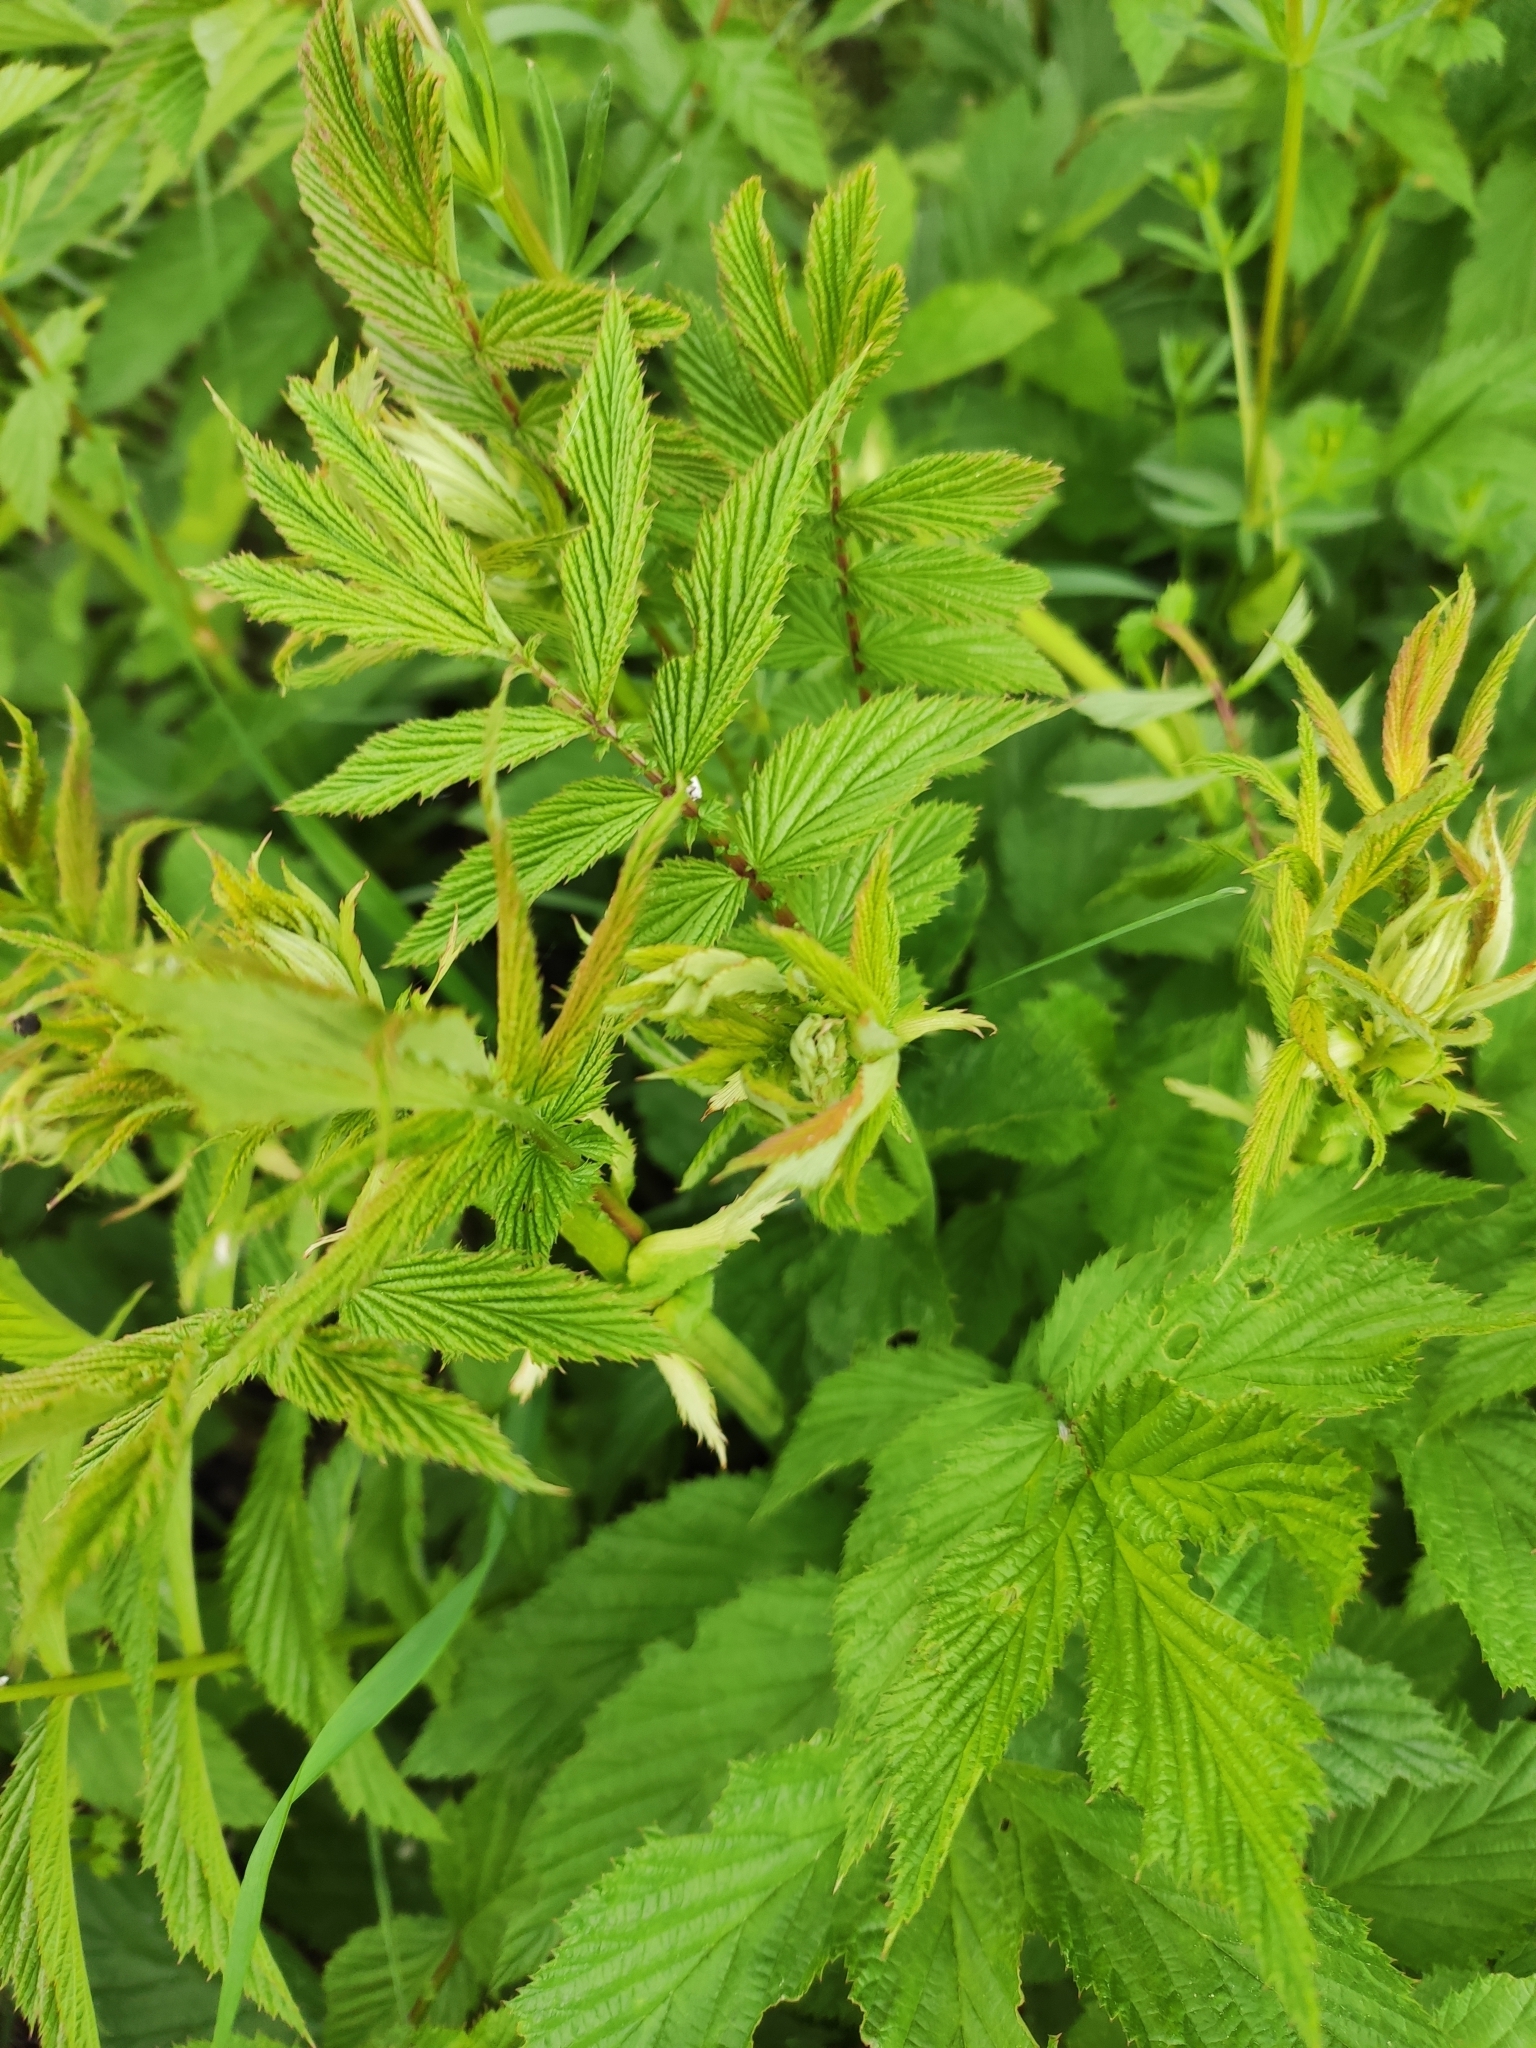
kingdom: Plantae
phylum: Tracheophyta
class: Magnoliopsida
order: Rosales
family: Rosaceae
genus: Filipendula
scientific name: Filipendula ulmaria
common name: Meadowsweet
